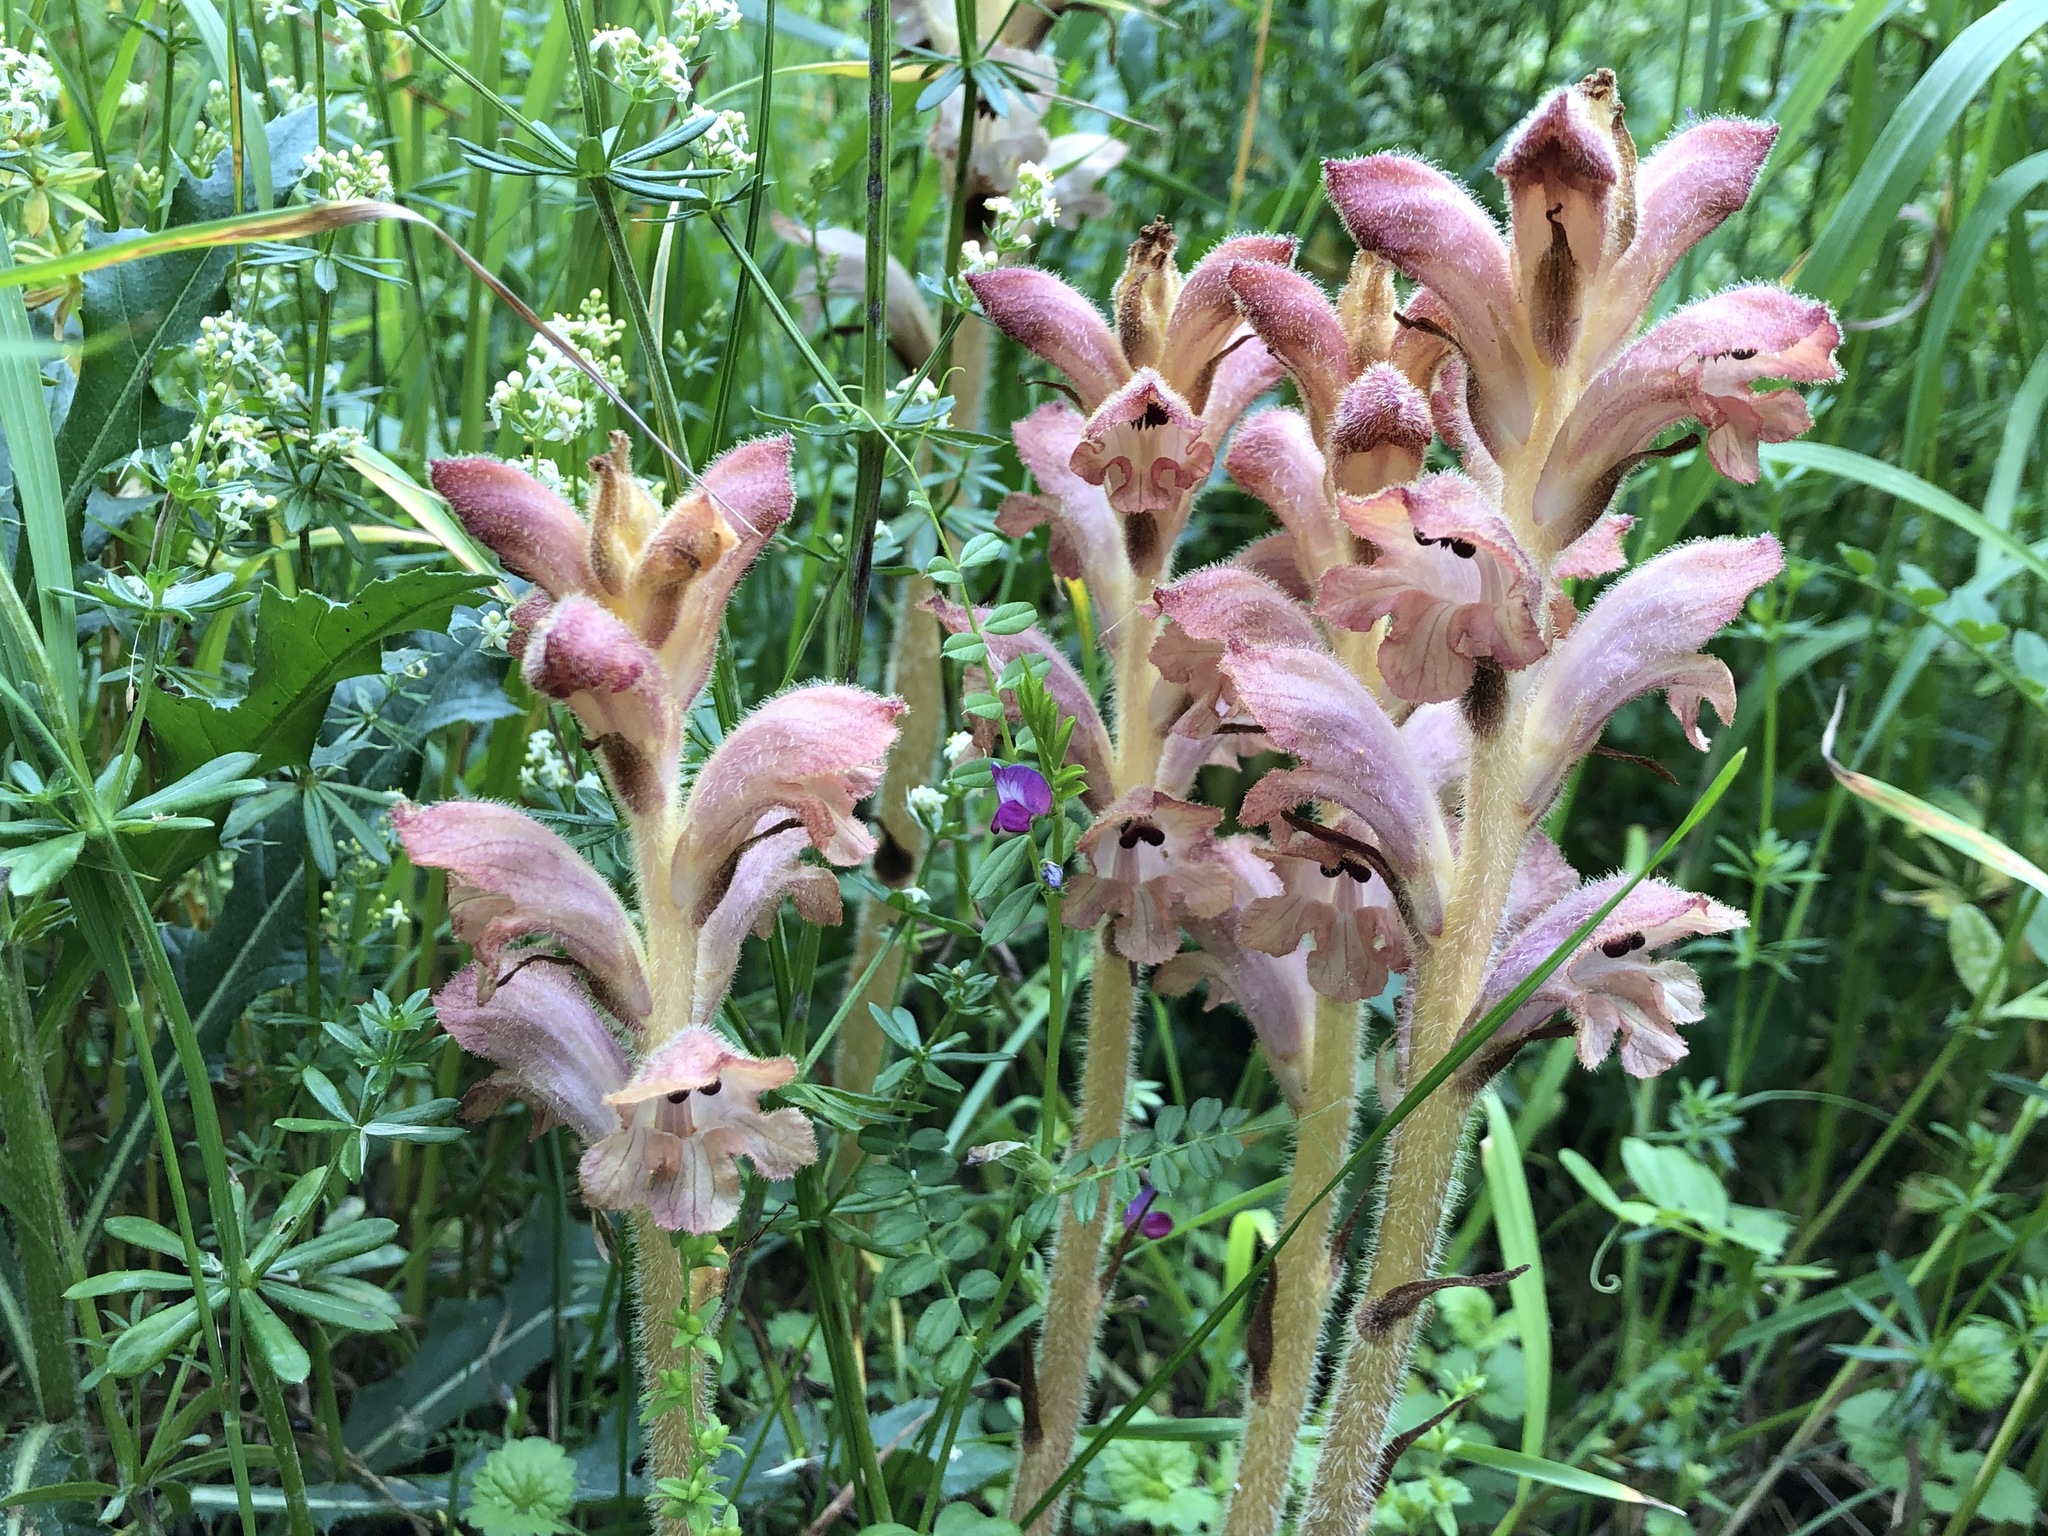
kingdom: Plantae
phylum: Tracheophyta
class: Magnoliopsida
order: Lamiales
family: Orobanchaceae
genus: Orobanche
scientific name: Orobanche caryophyllacea
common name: Bedstraw broomrape
